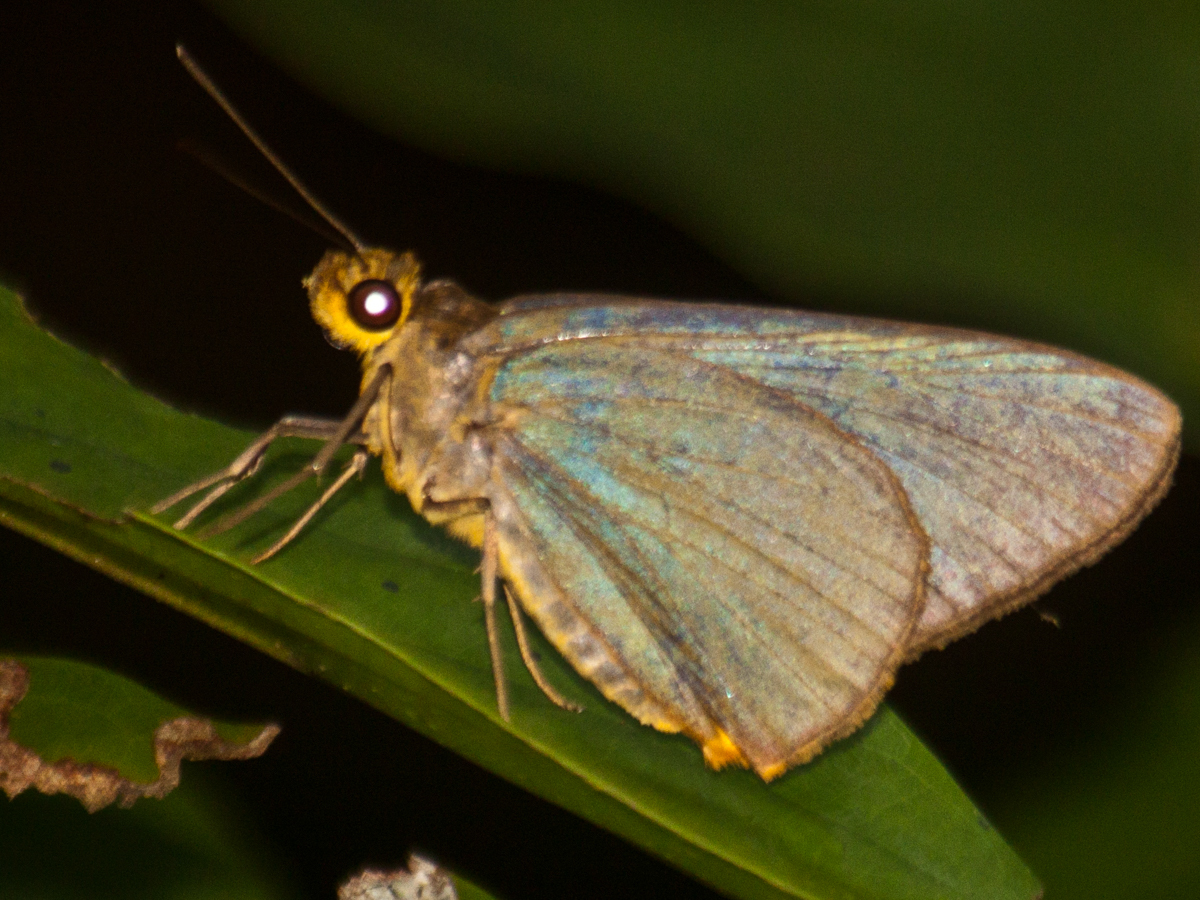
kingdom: Animalia
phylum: Arthropoda
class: Insecta
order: Lepidoptera
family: Hesperiidae
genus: Pirdana
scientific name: Pirdana distanti
